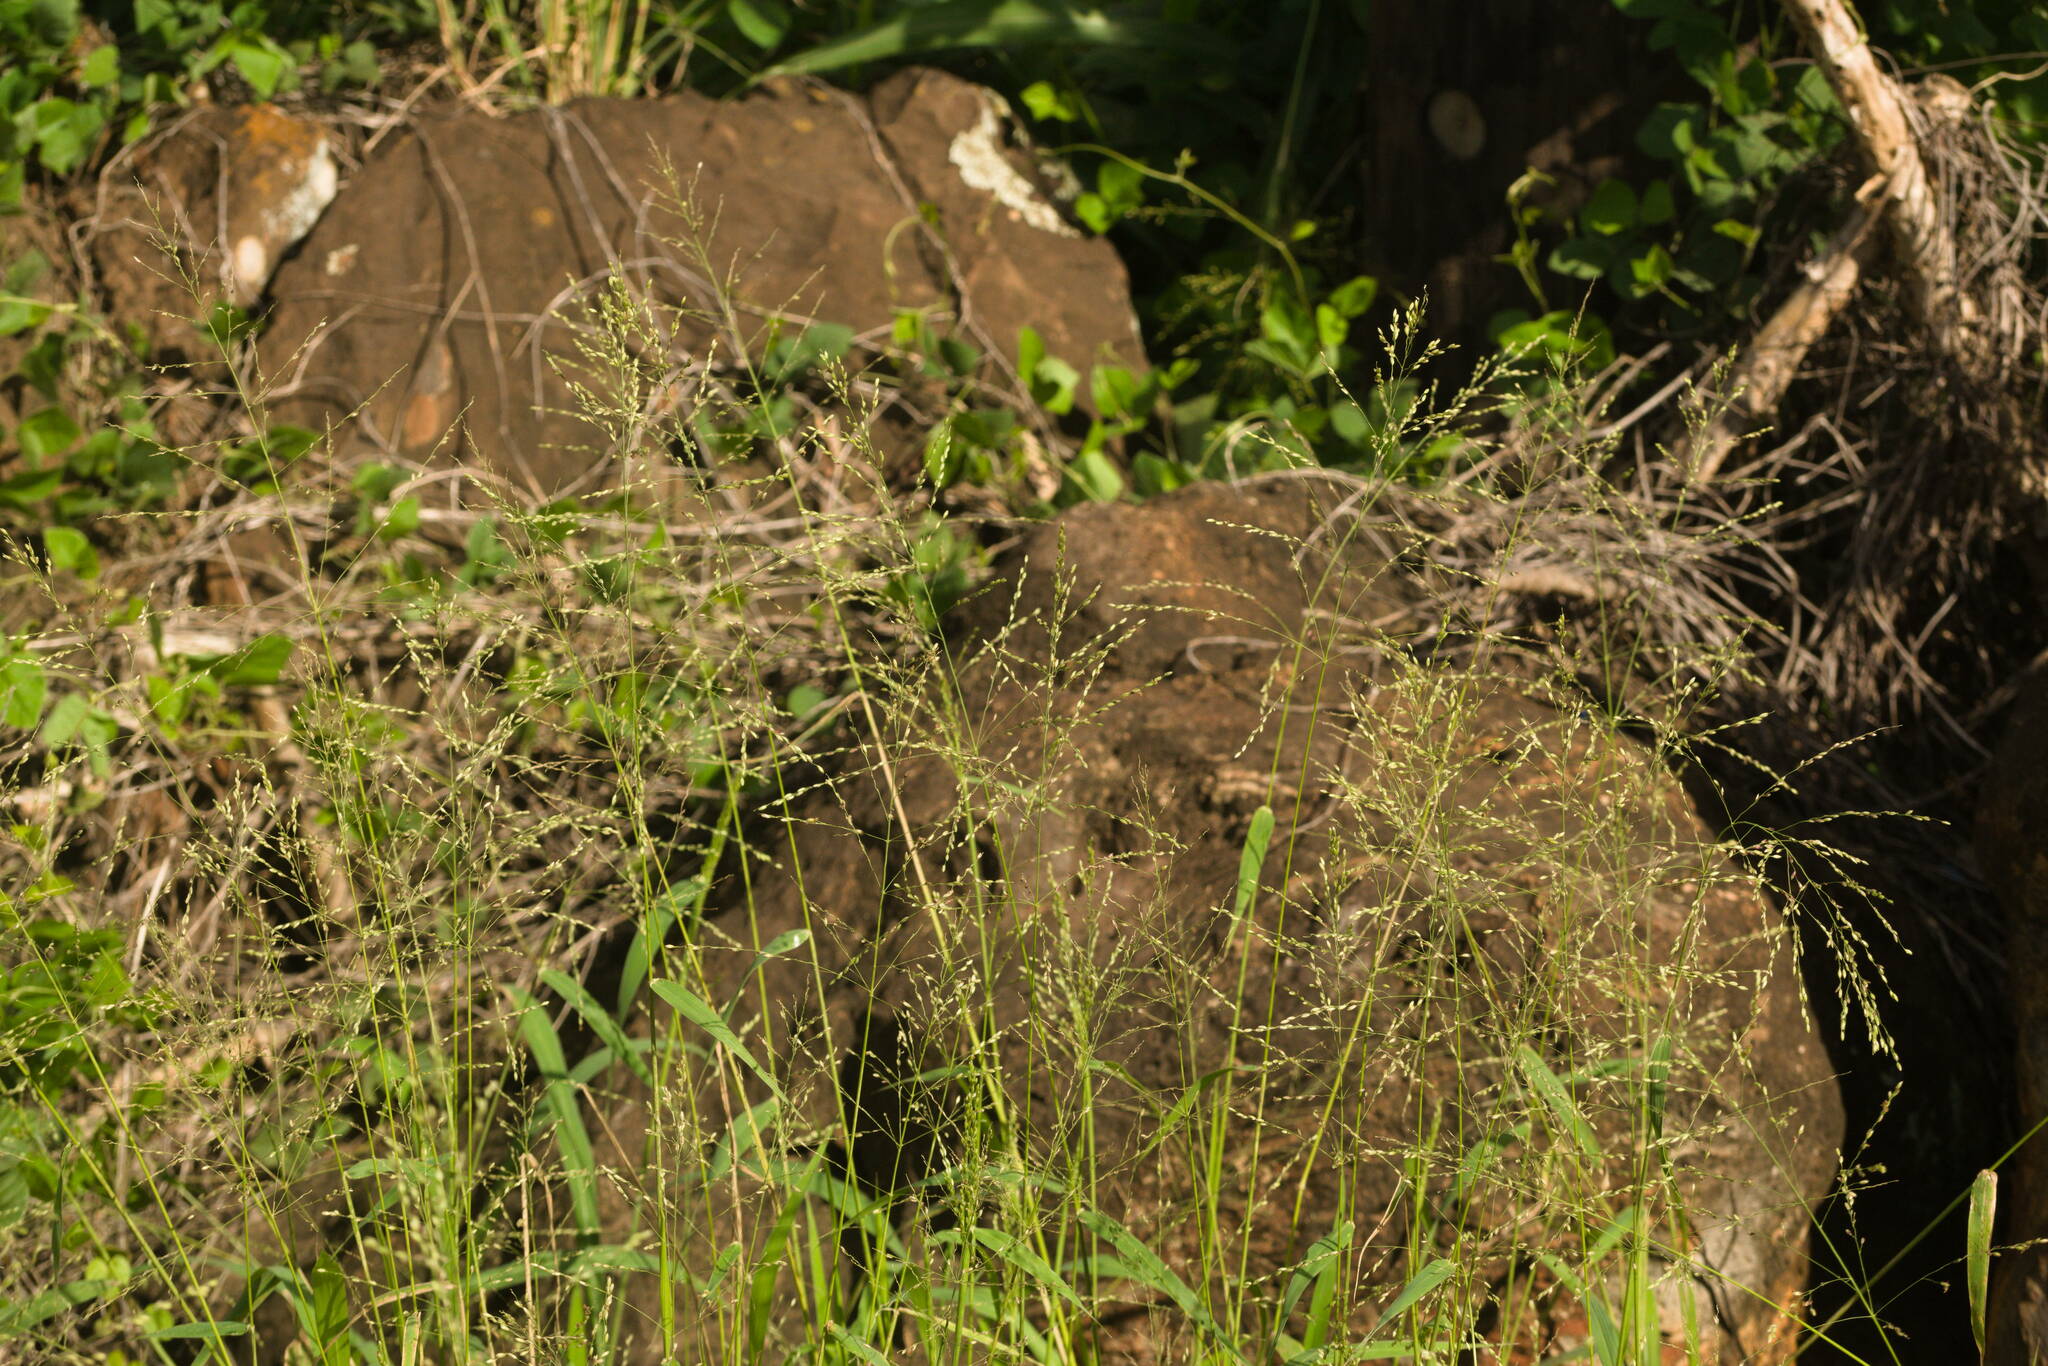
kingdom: Plantae
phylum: Tracheophyta
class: Liliopsida
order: Poales
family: Poaceae
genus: Megathyrsus
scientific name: Megathyrsus maximus
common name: Guineagrass
